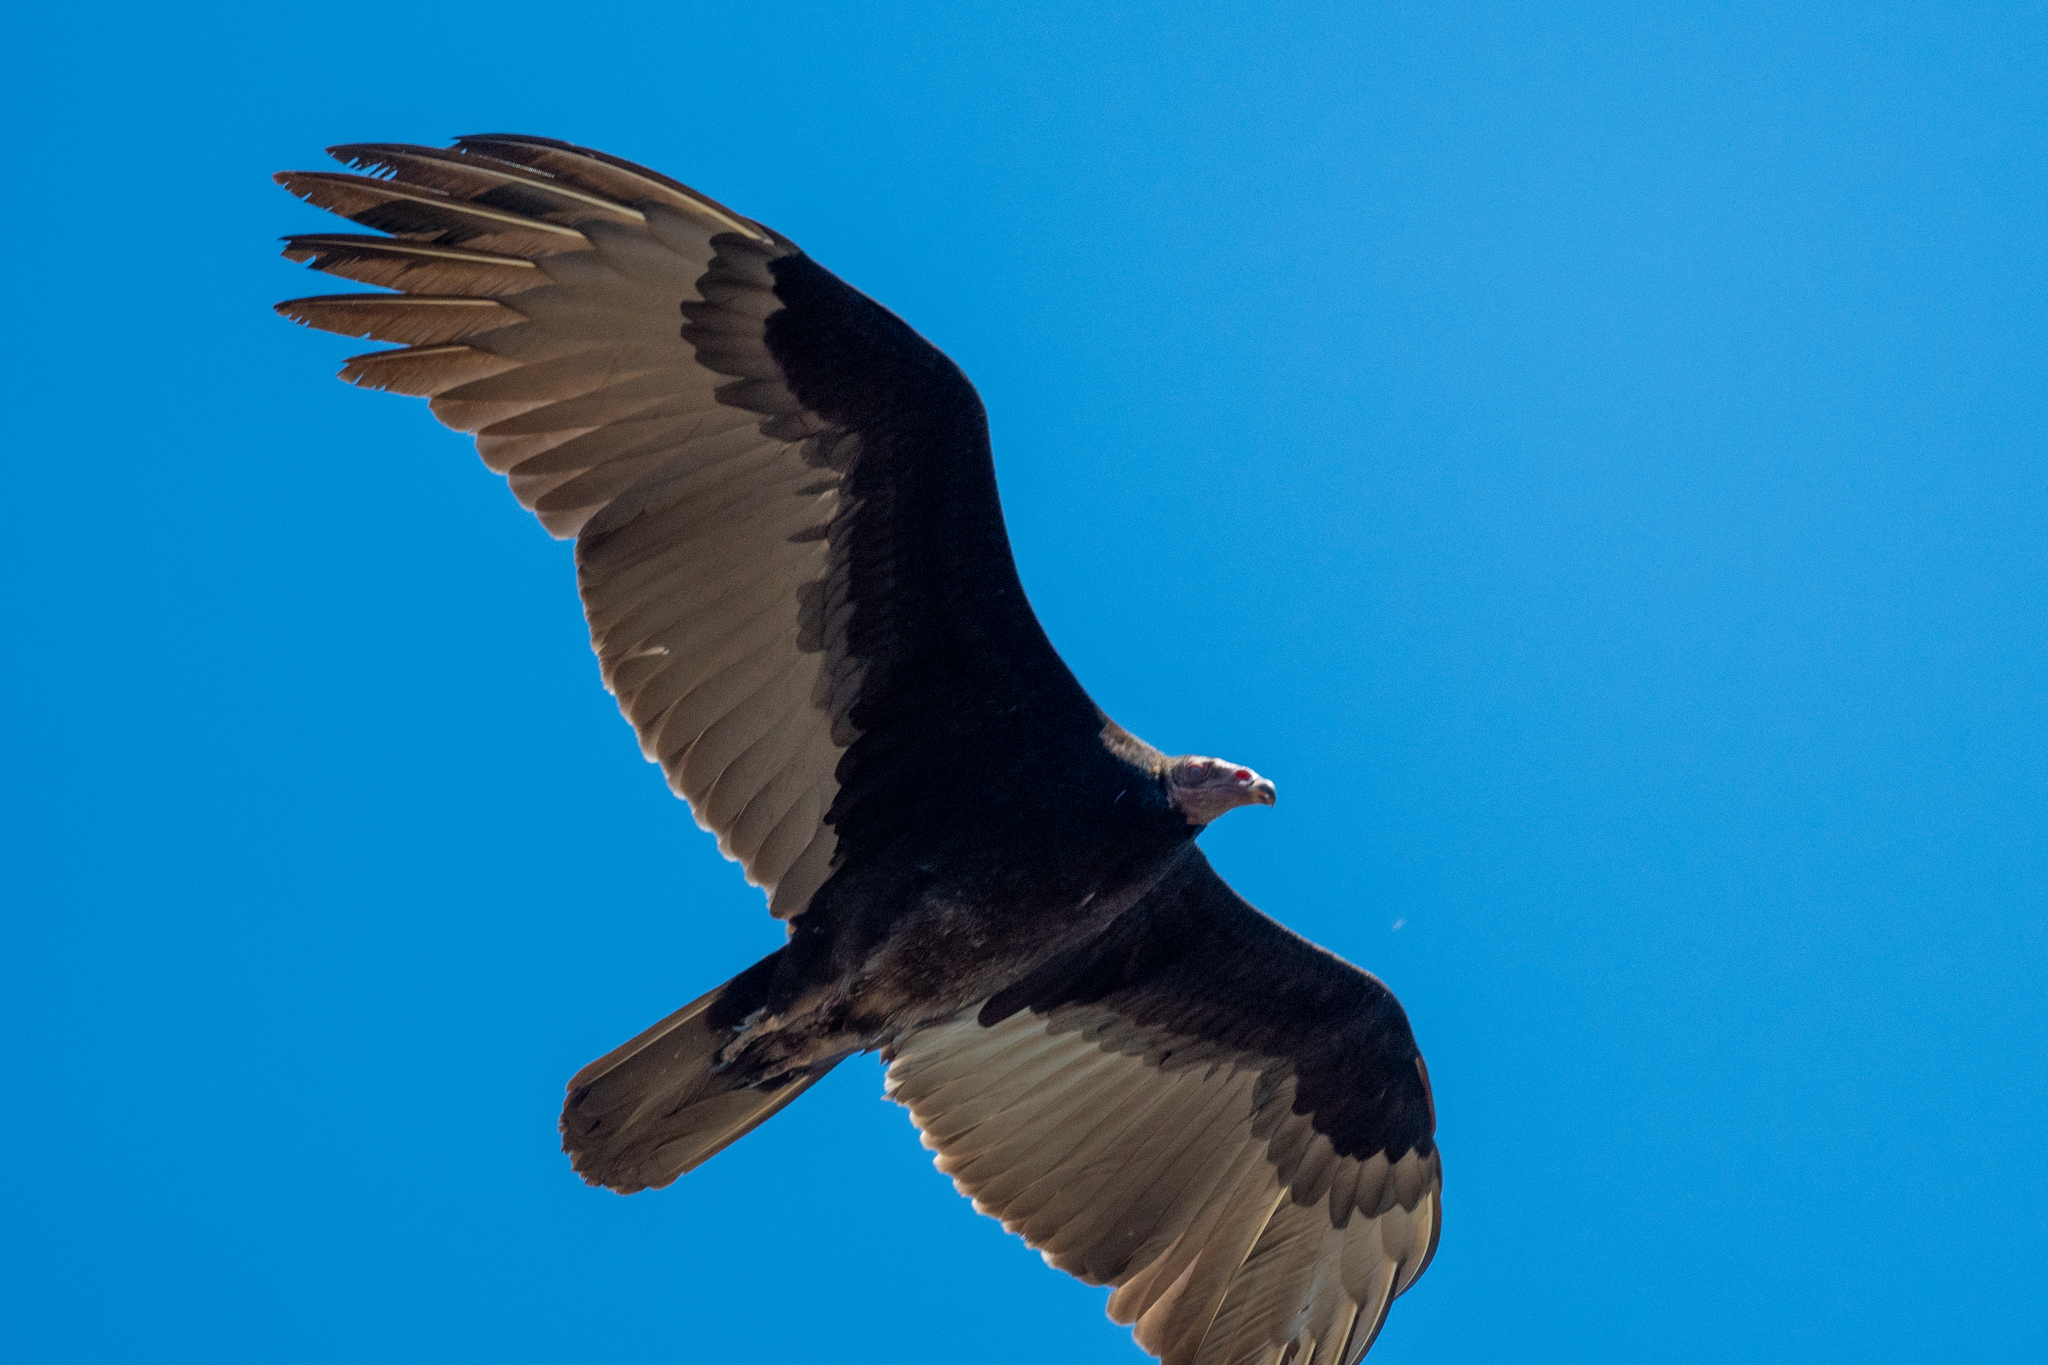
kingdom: Animalia
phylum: Chordata
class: Aves
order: Accipitriformes
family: Cathartidae
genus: Cathartes
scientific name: Cathartes aura
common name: Turkey vulture
